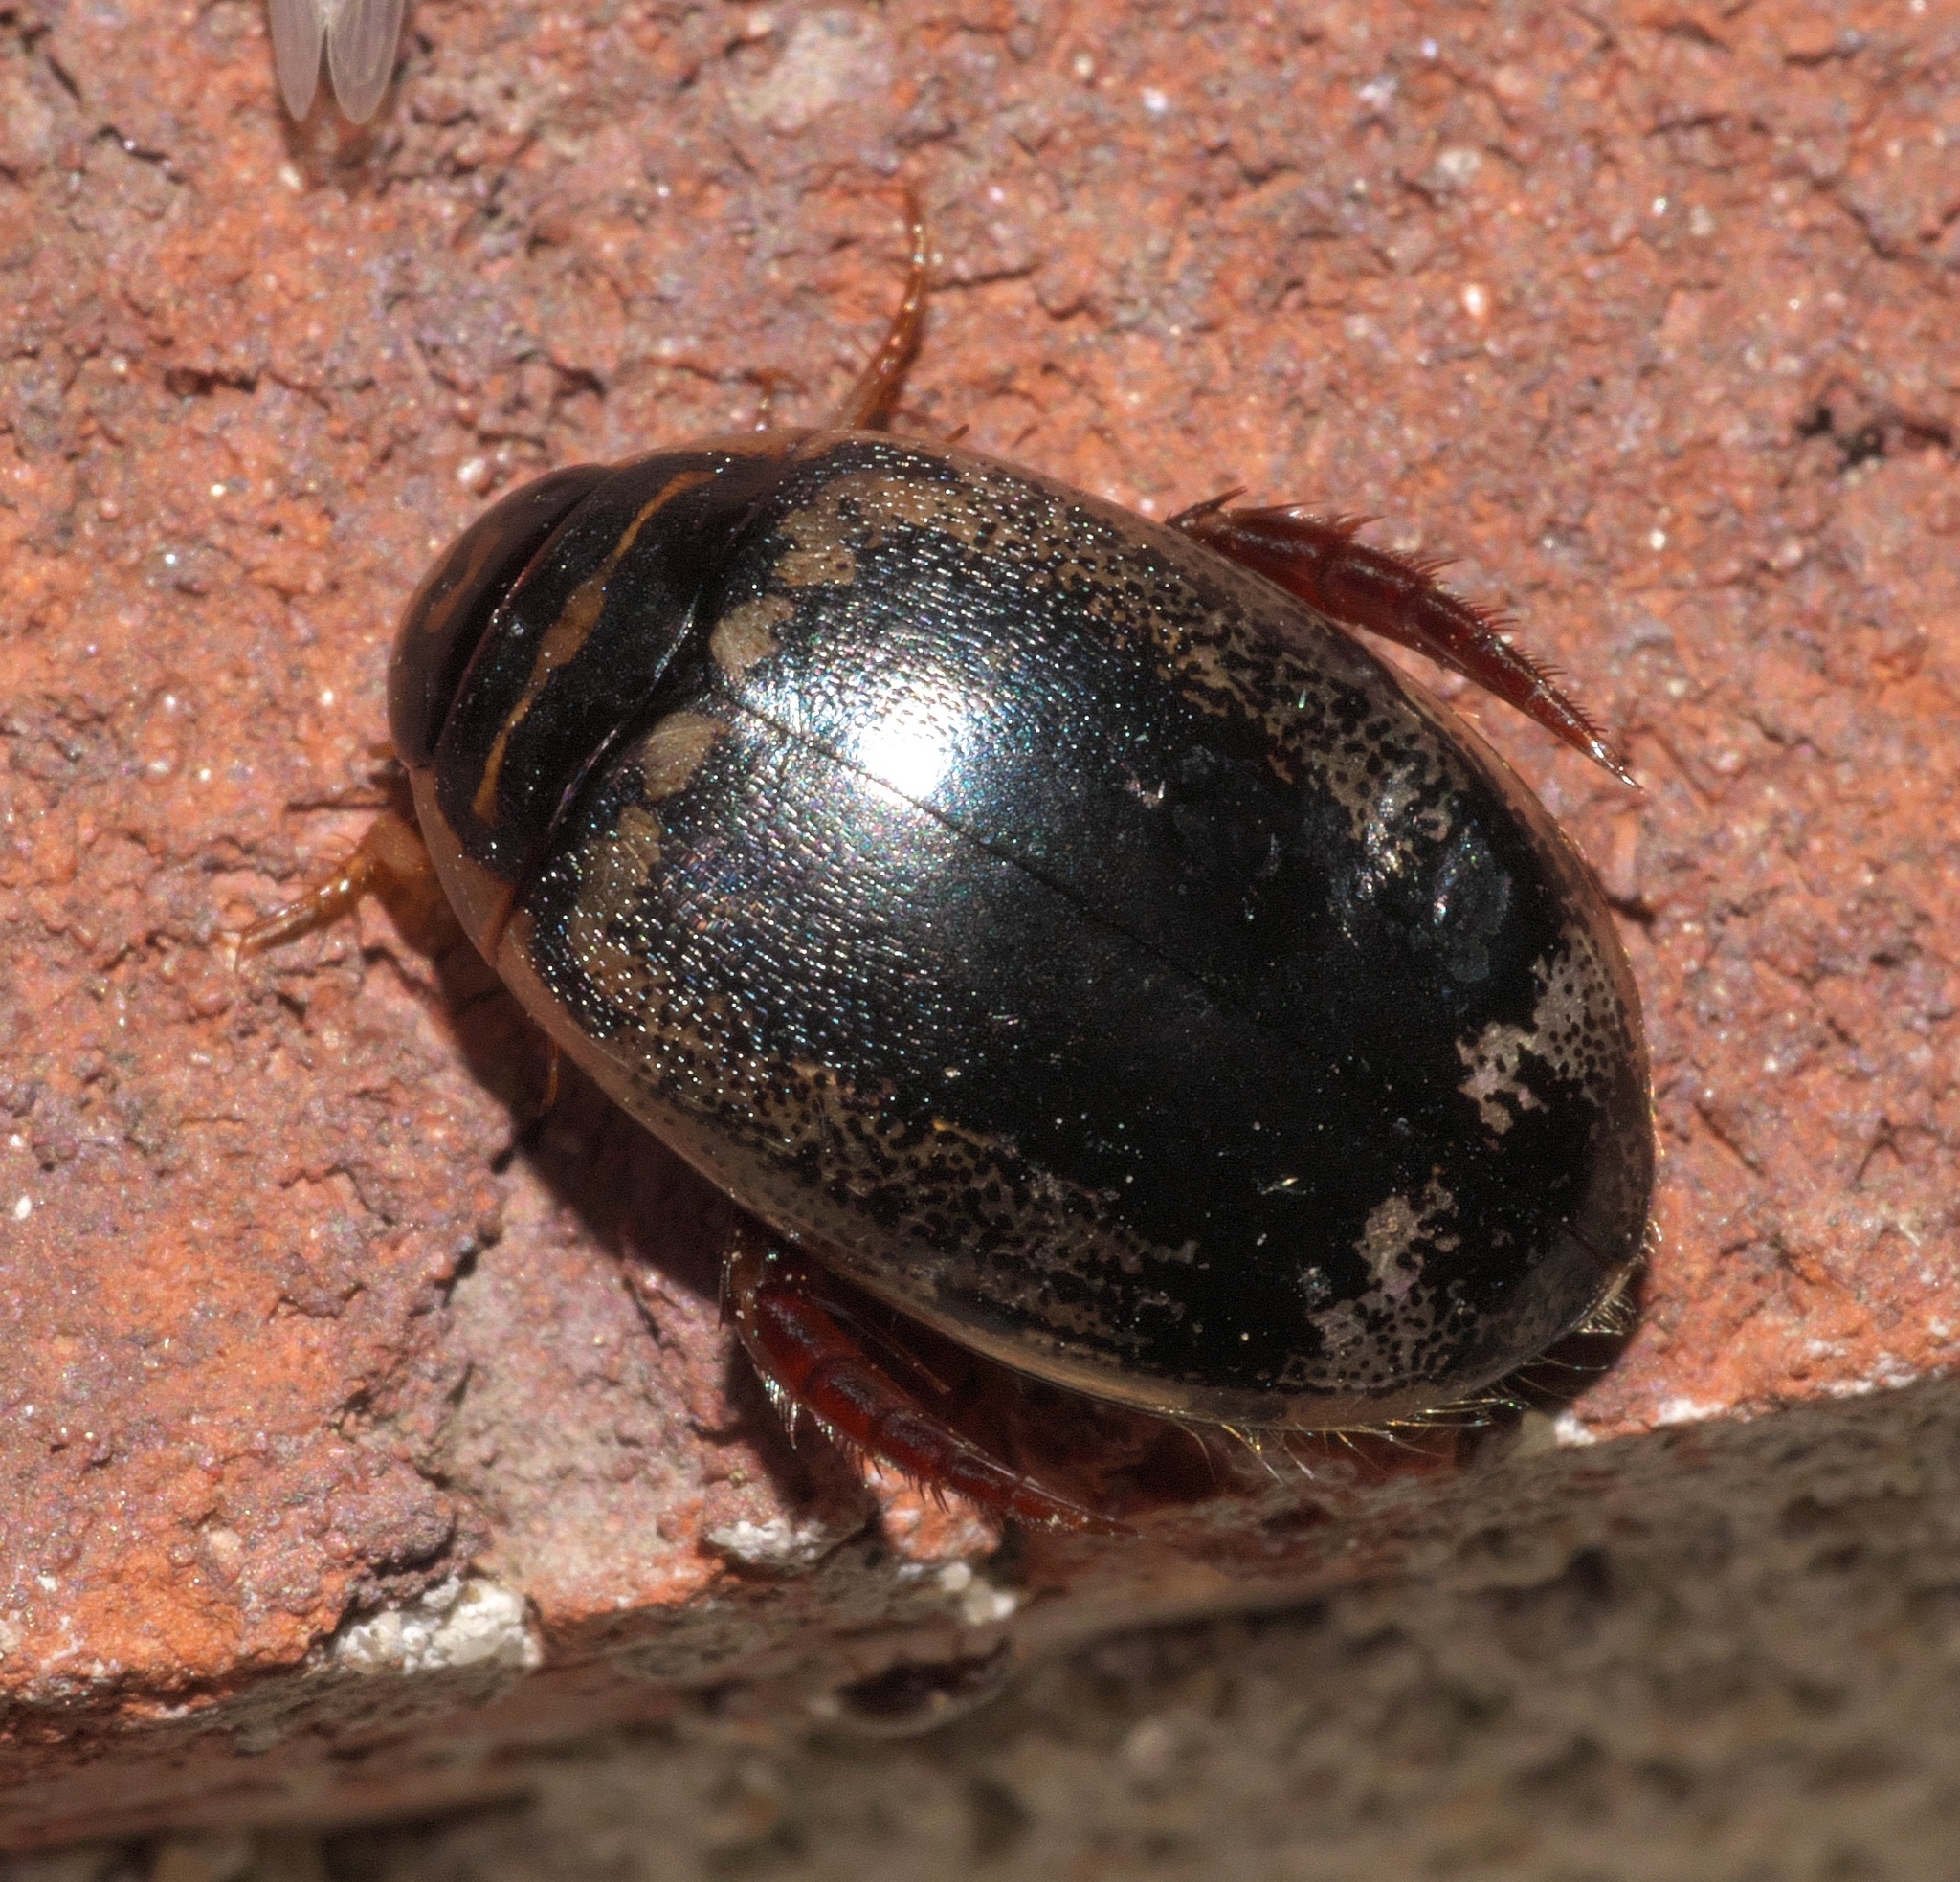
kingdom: Animalia
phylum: Arthropoda
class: Insecta
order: Coleoptera
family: Dytiscidae
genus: Thermonectus
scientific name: Thermonectus basillaris
